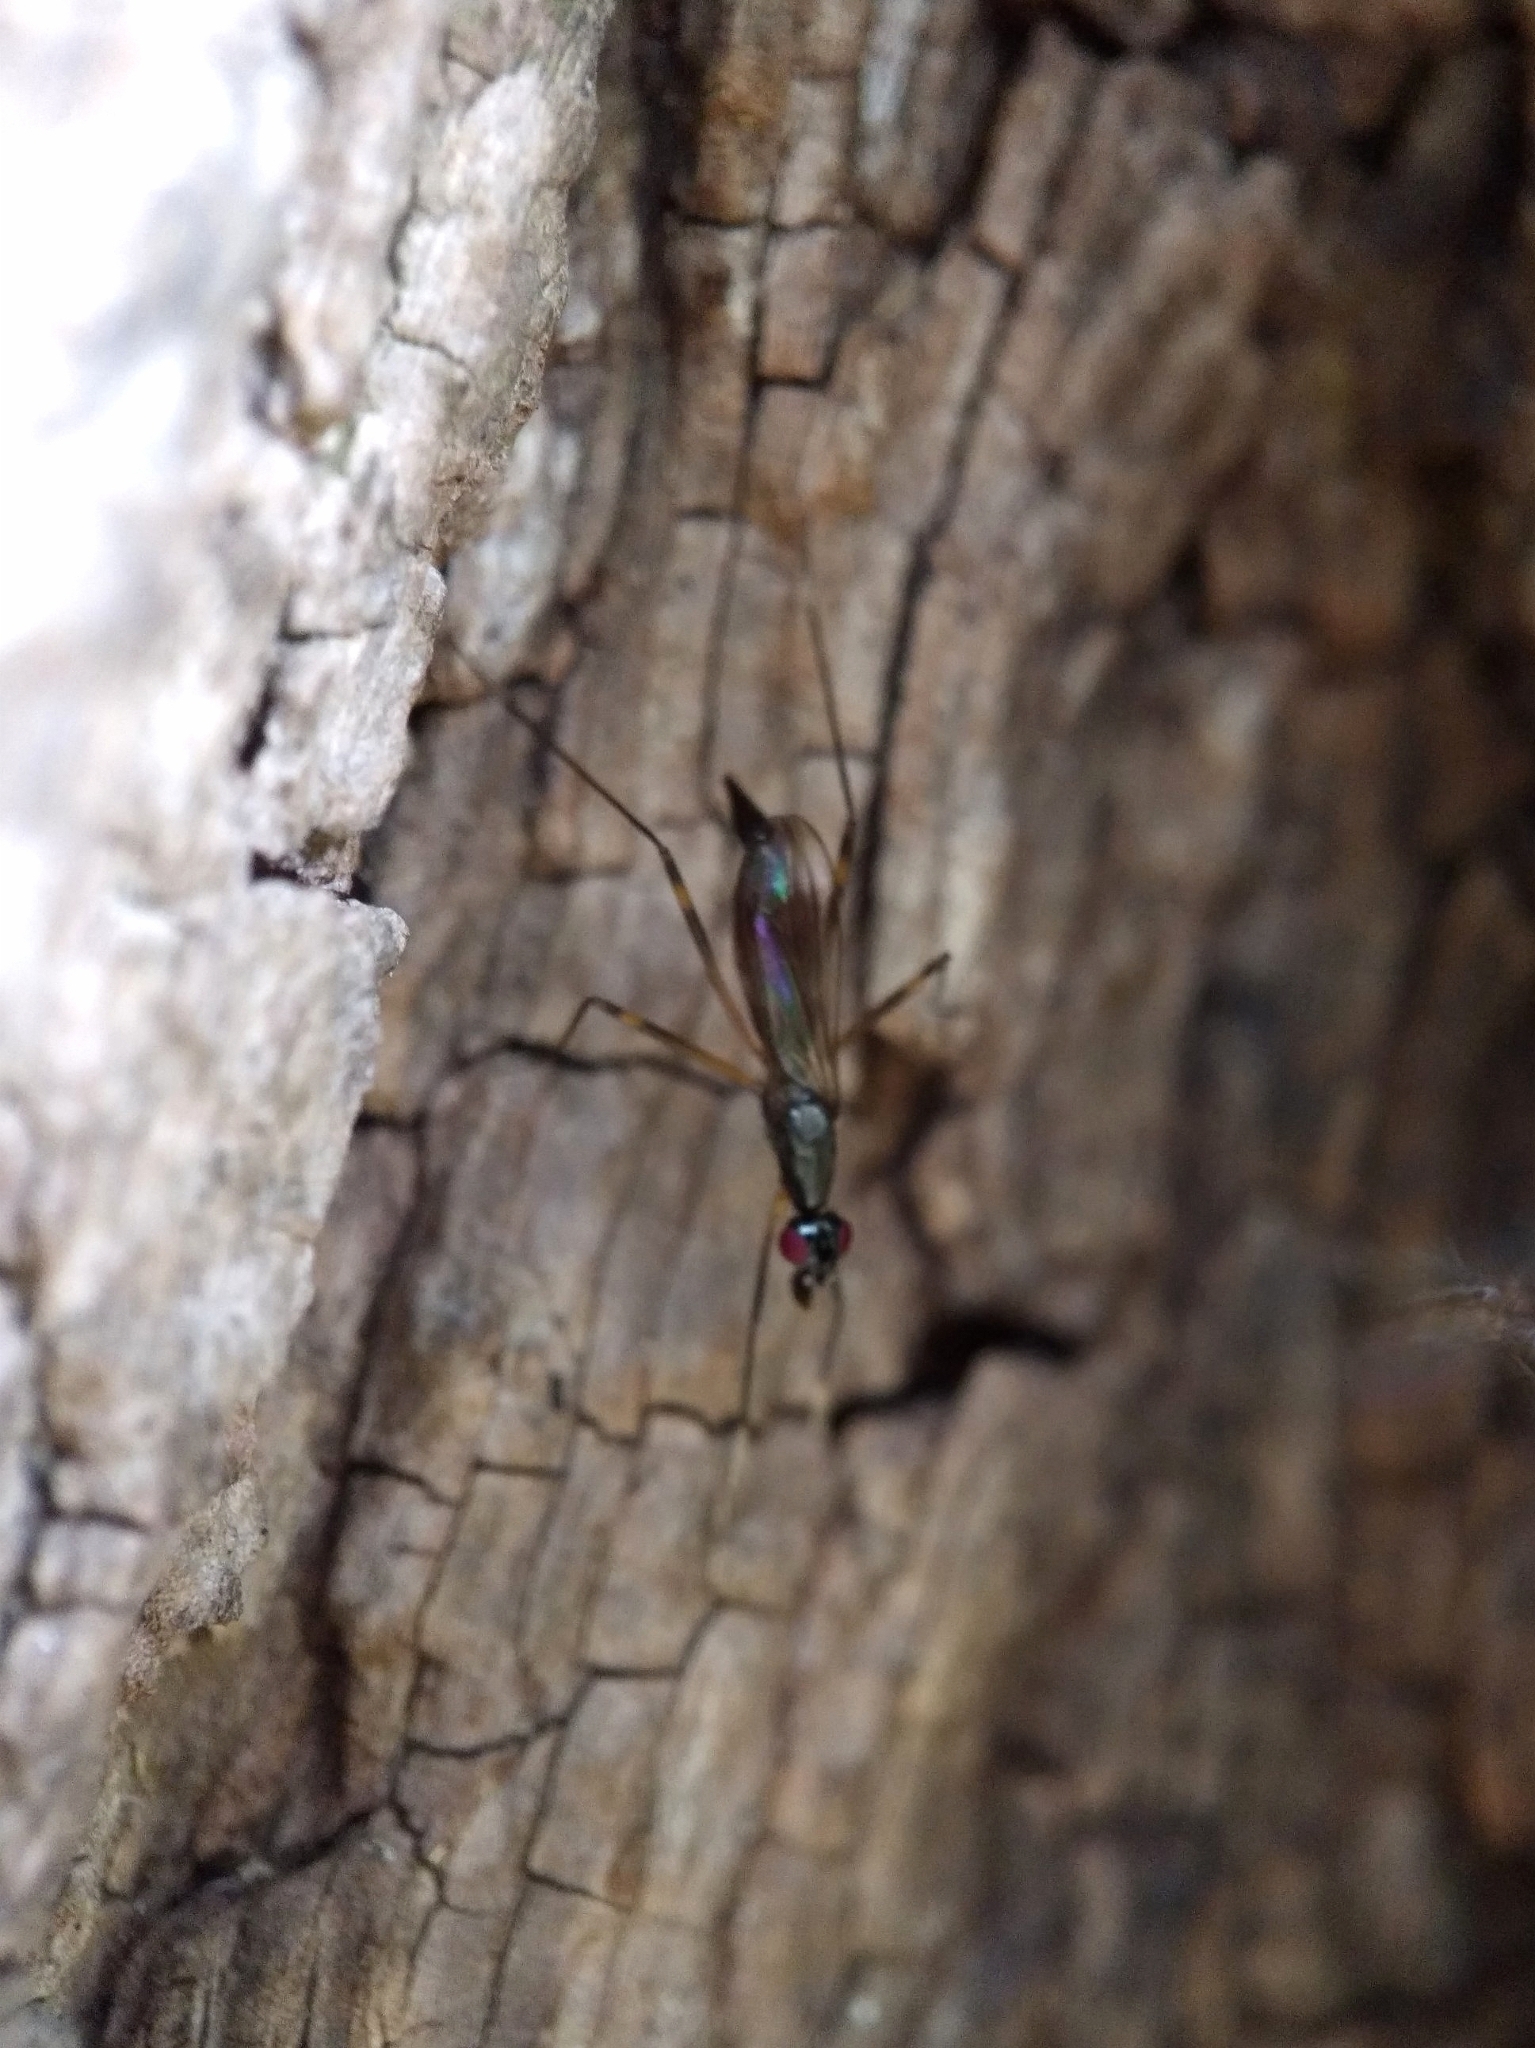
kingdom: Animalia
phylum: Arthropoda
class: Insecta
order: Diptera
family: Micropezidae
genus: Rainieria
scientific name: Rainieria antennaepes
